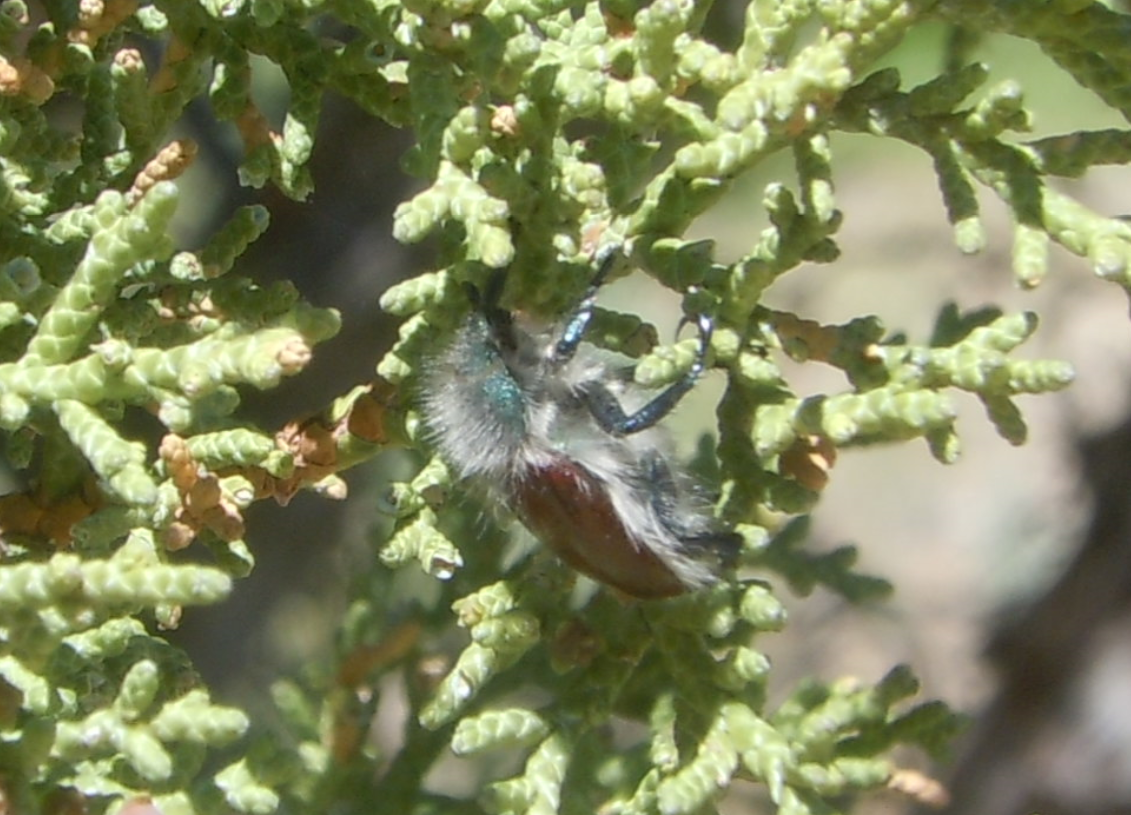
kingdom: Animalia
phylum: Arthropoda
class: Insecta
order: Coleoptera
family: Scarabaeidae
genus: Paracotalpa
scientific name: Paracotalpa granicollis
